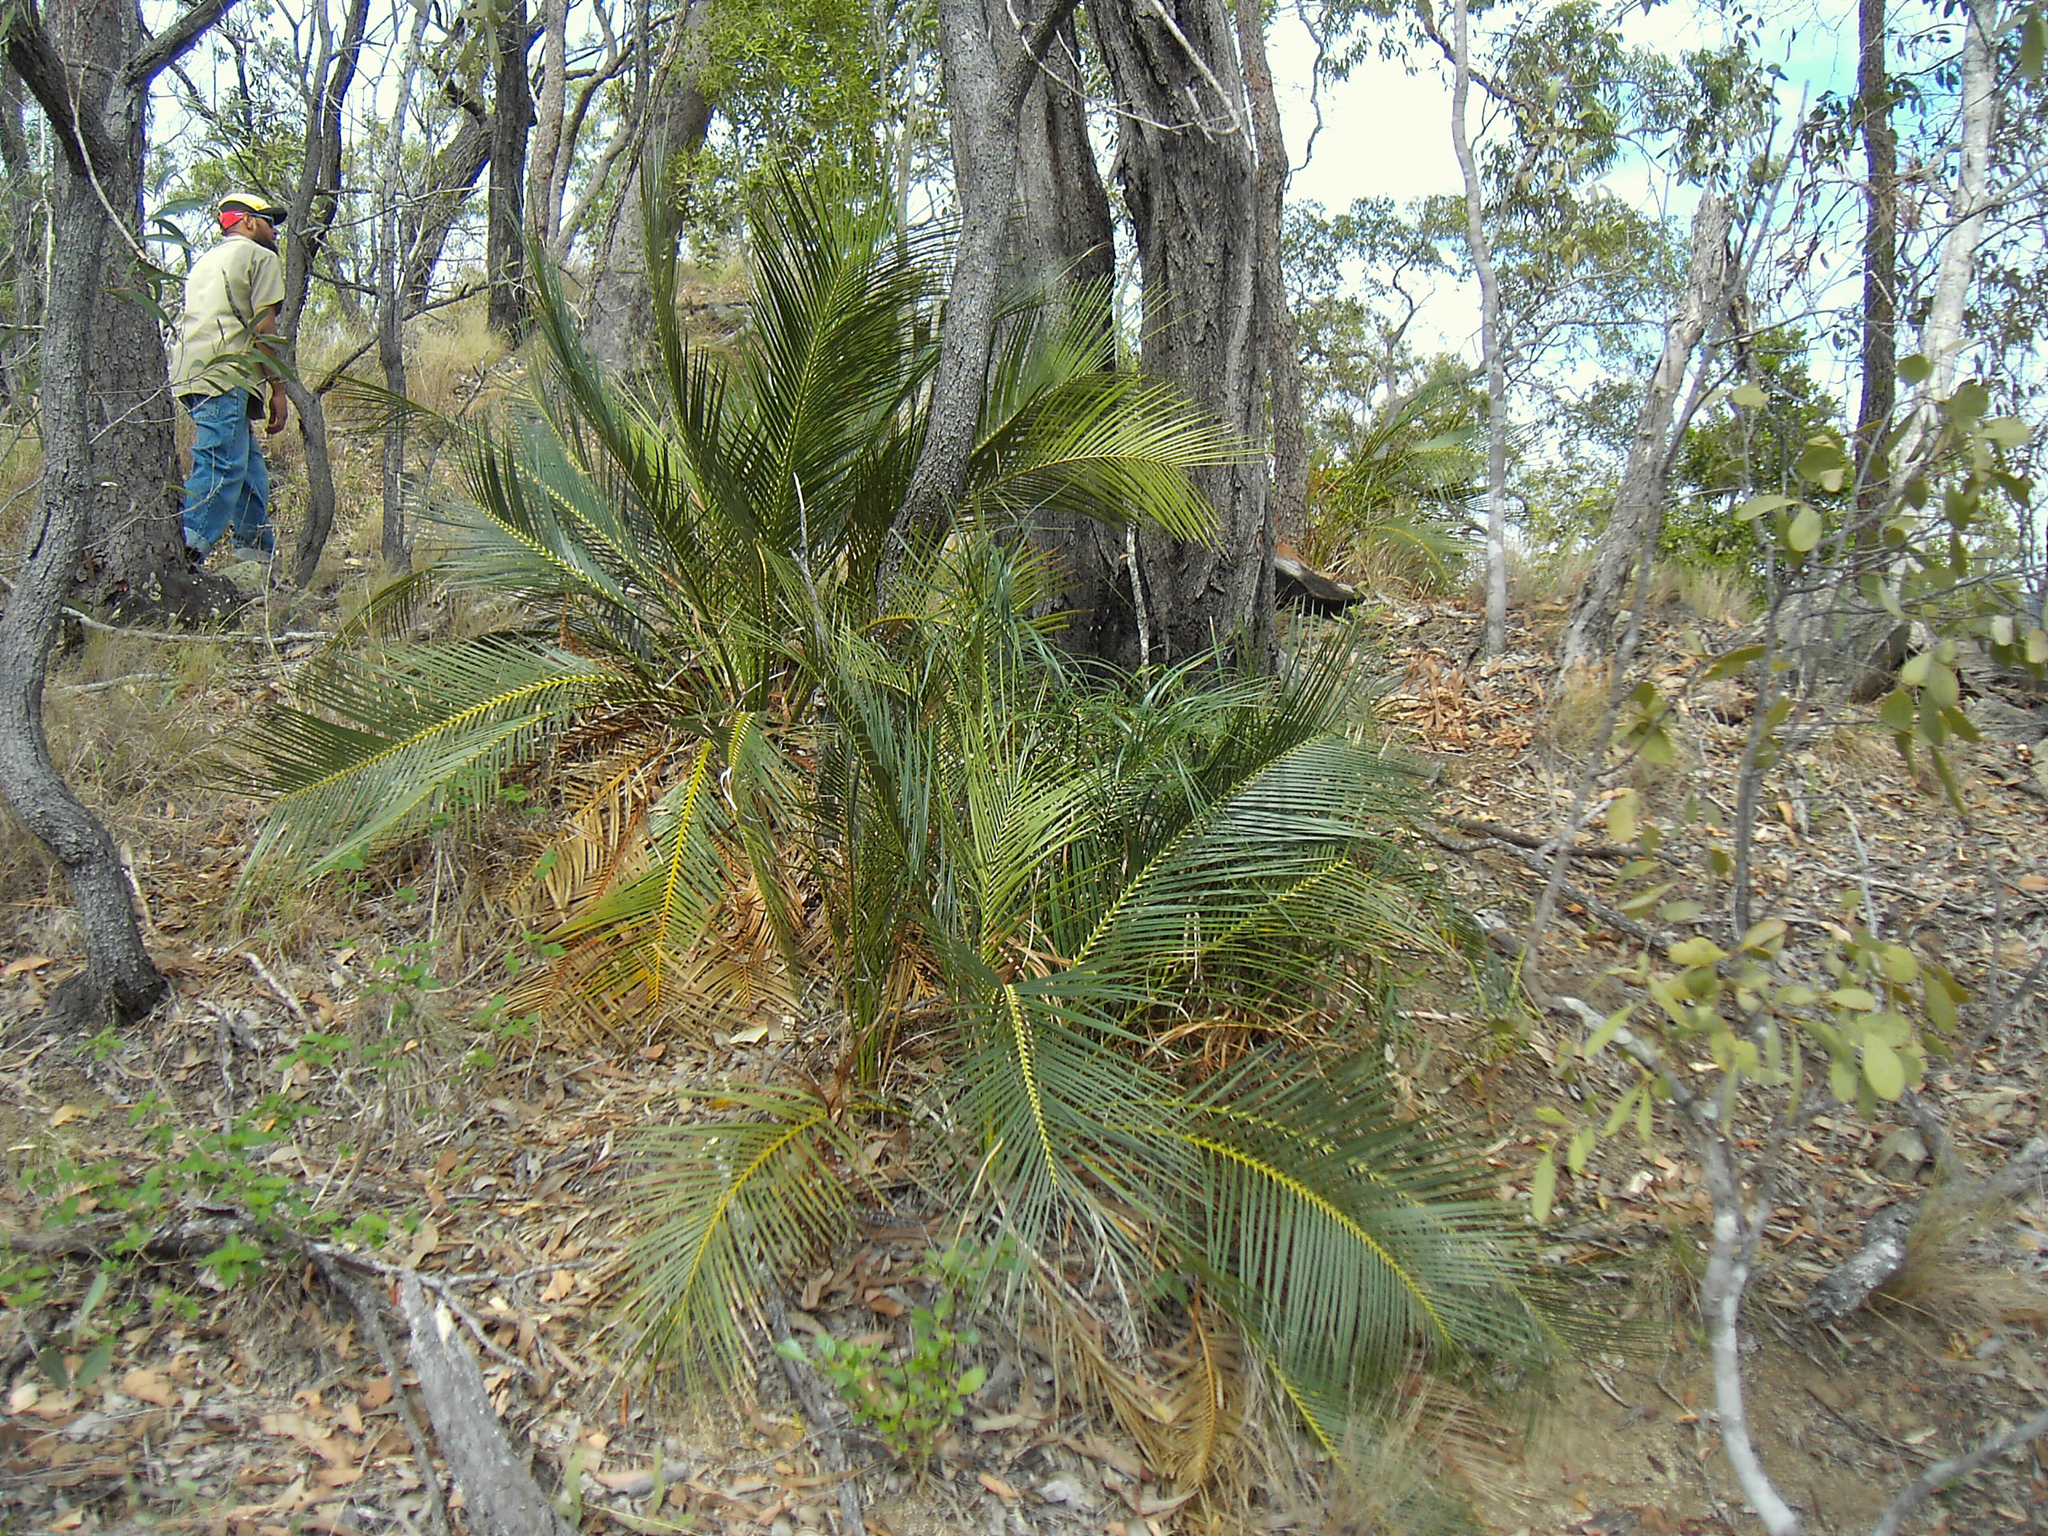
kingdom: Plantae
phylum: Tracheophyta
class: Cycadopsida
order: Cycadales
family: Zamiaceae
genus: Macrozamia
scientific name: Macrozamia macleayi
